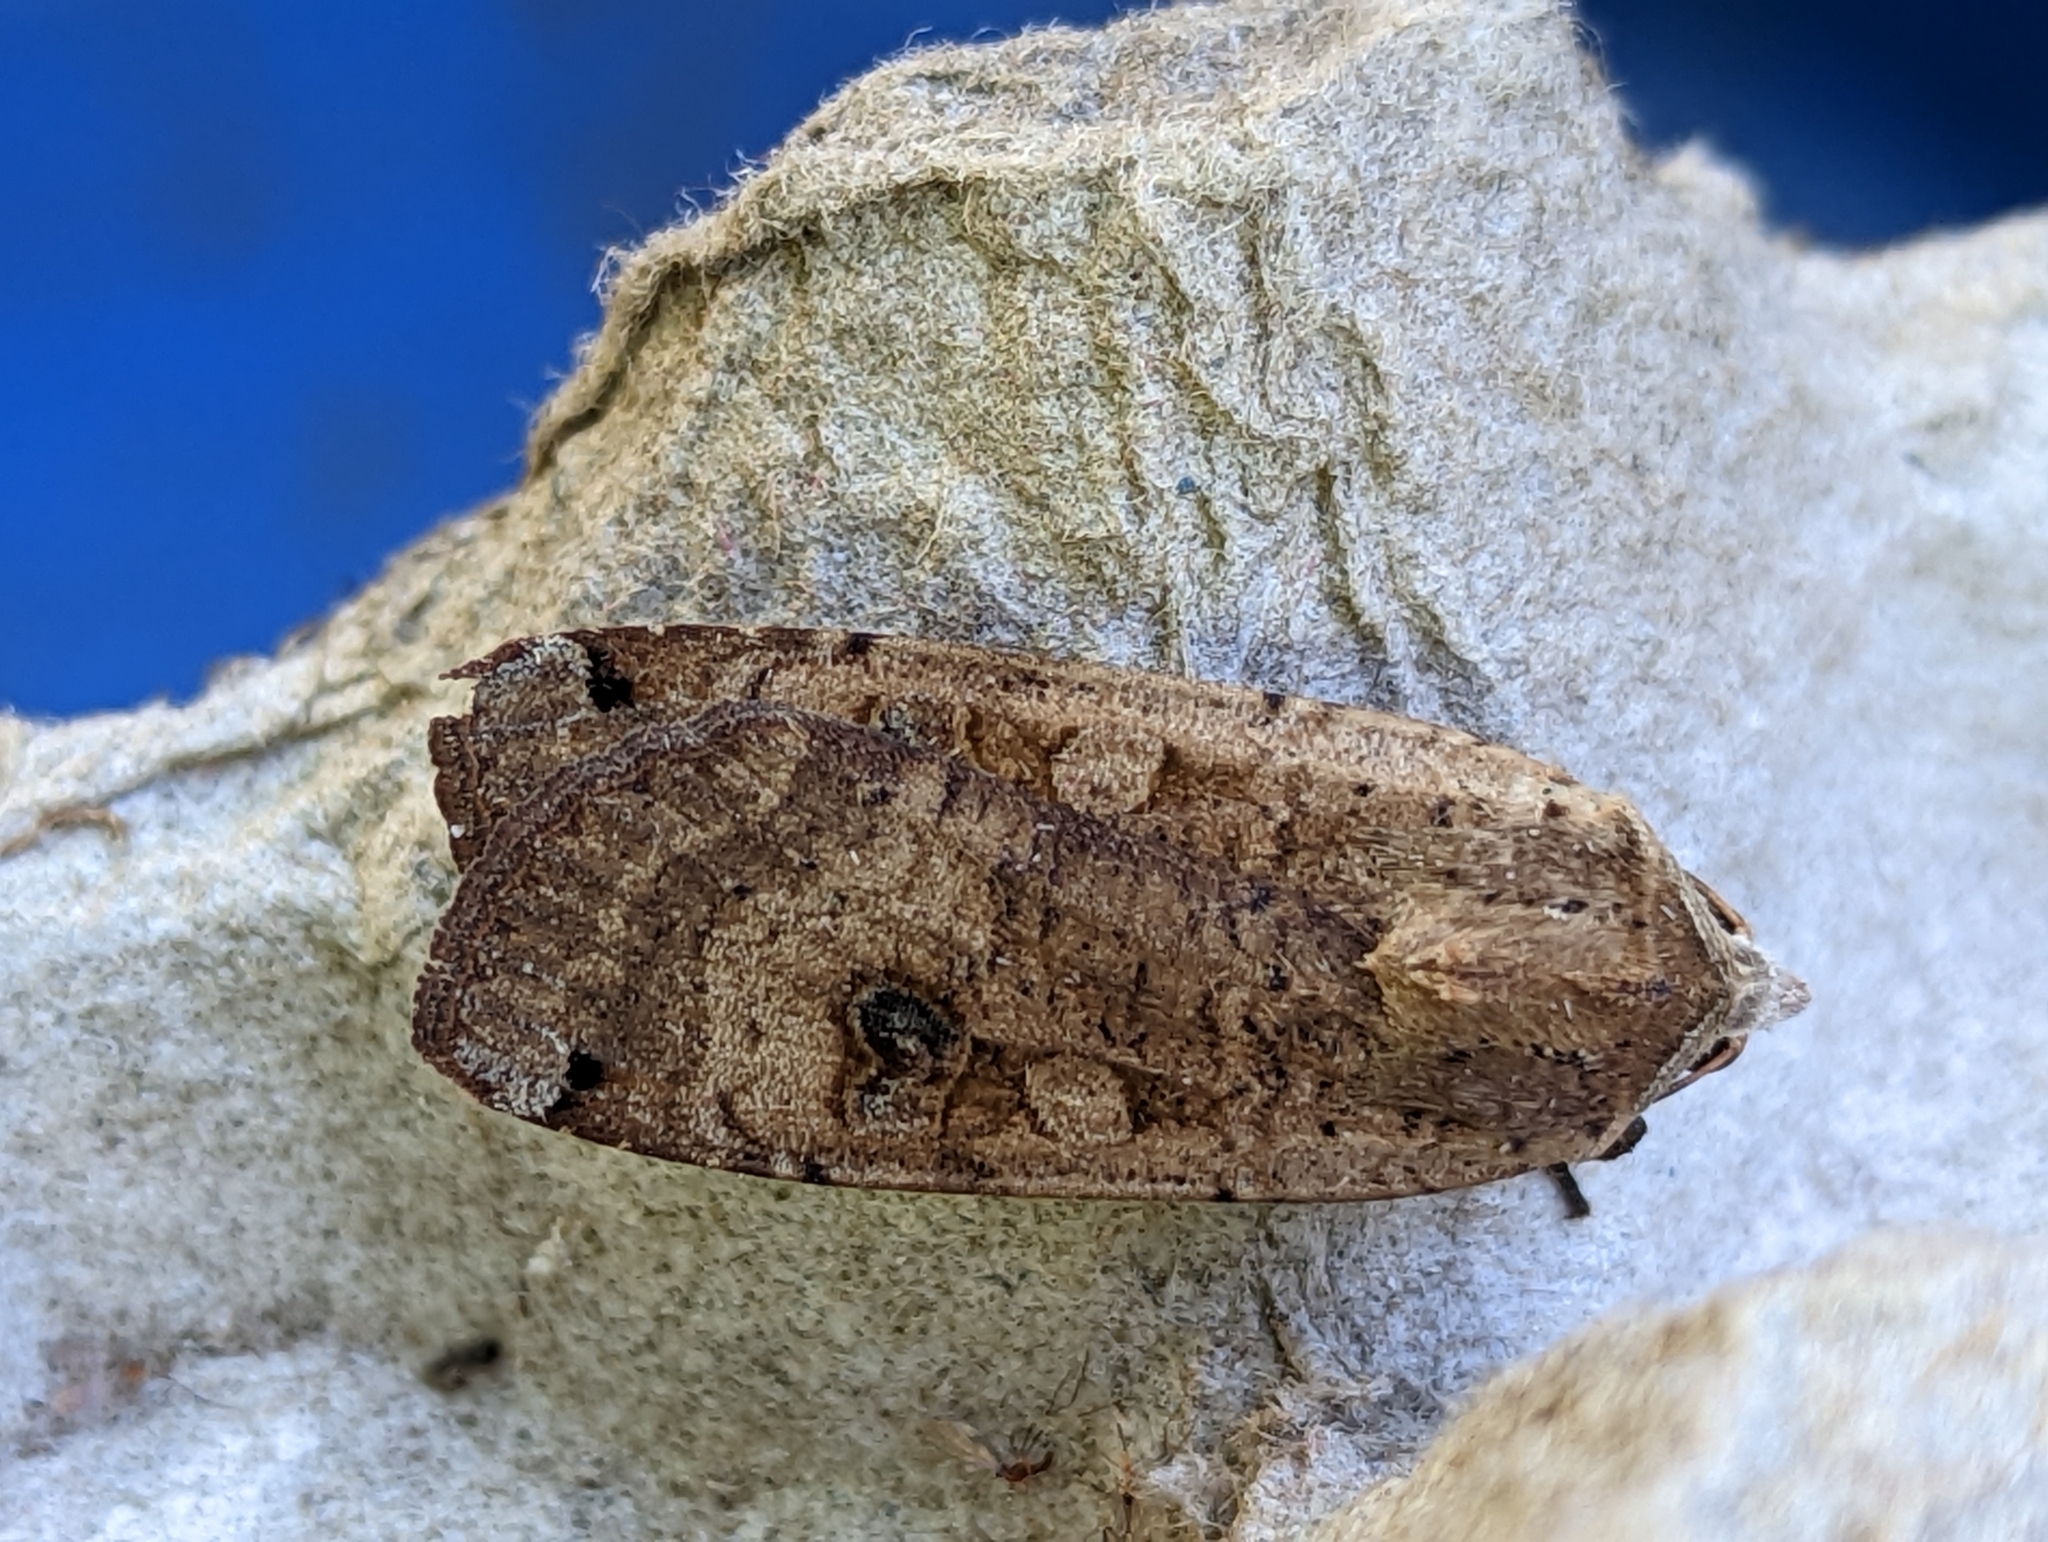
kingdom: Animalia
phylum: Arthropoda
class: Insecta
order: Lepidoptera
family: Noctuidae
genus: Noctua
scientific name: Noctua pronuba
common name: Large yellow underwing
